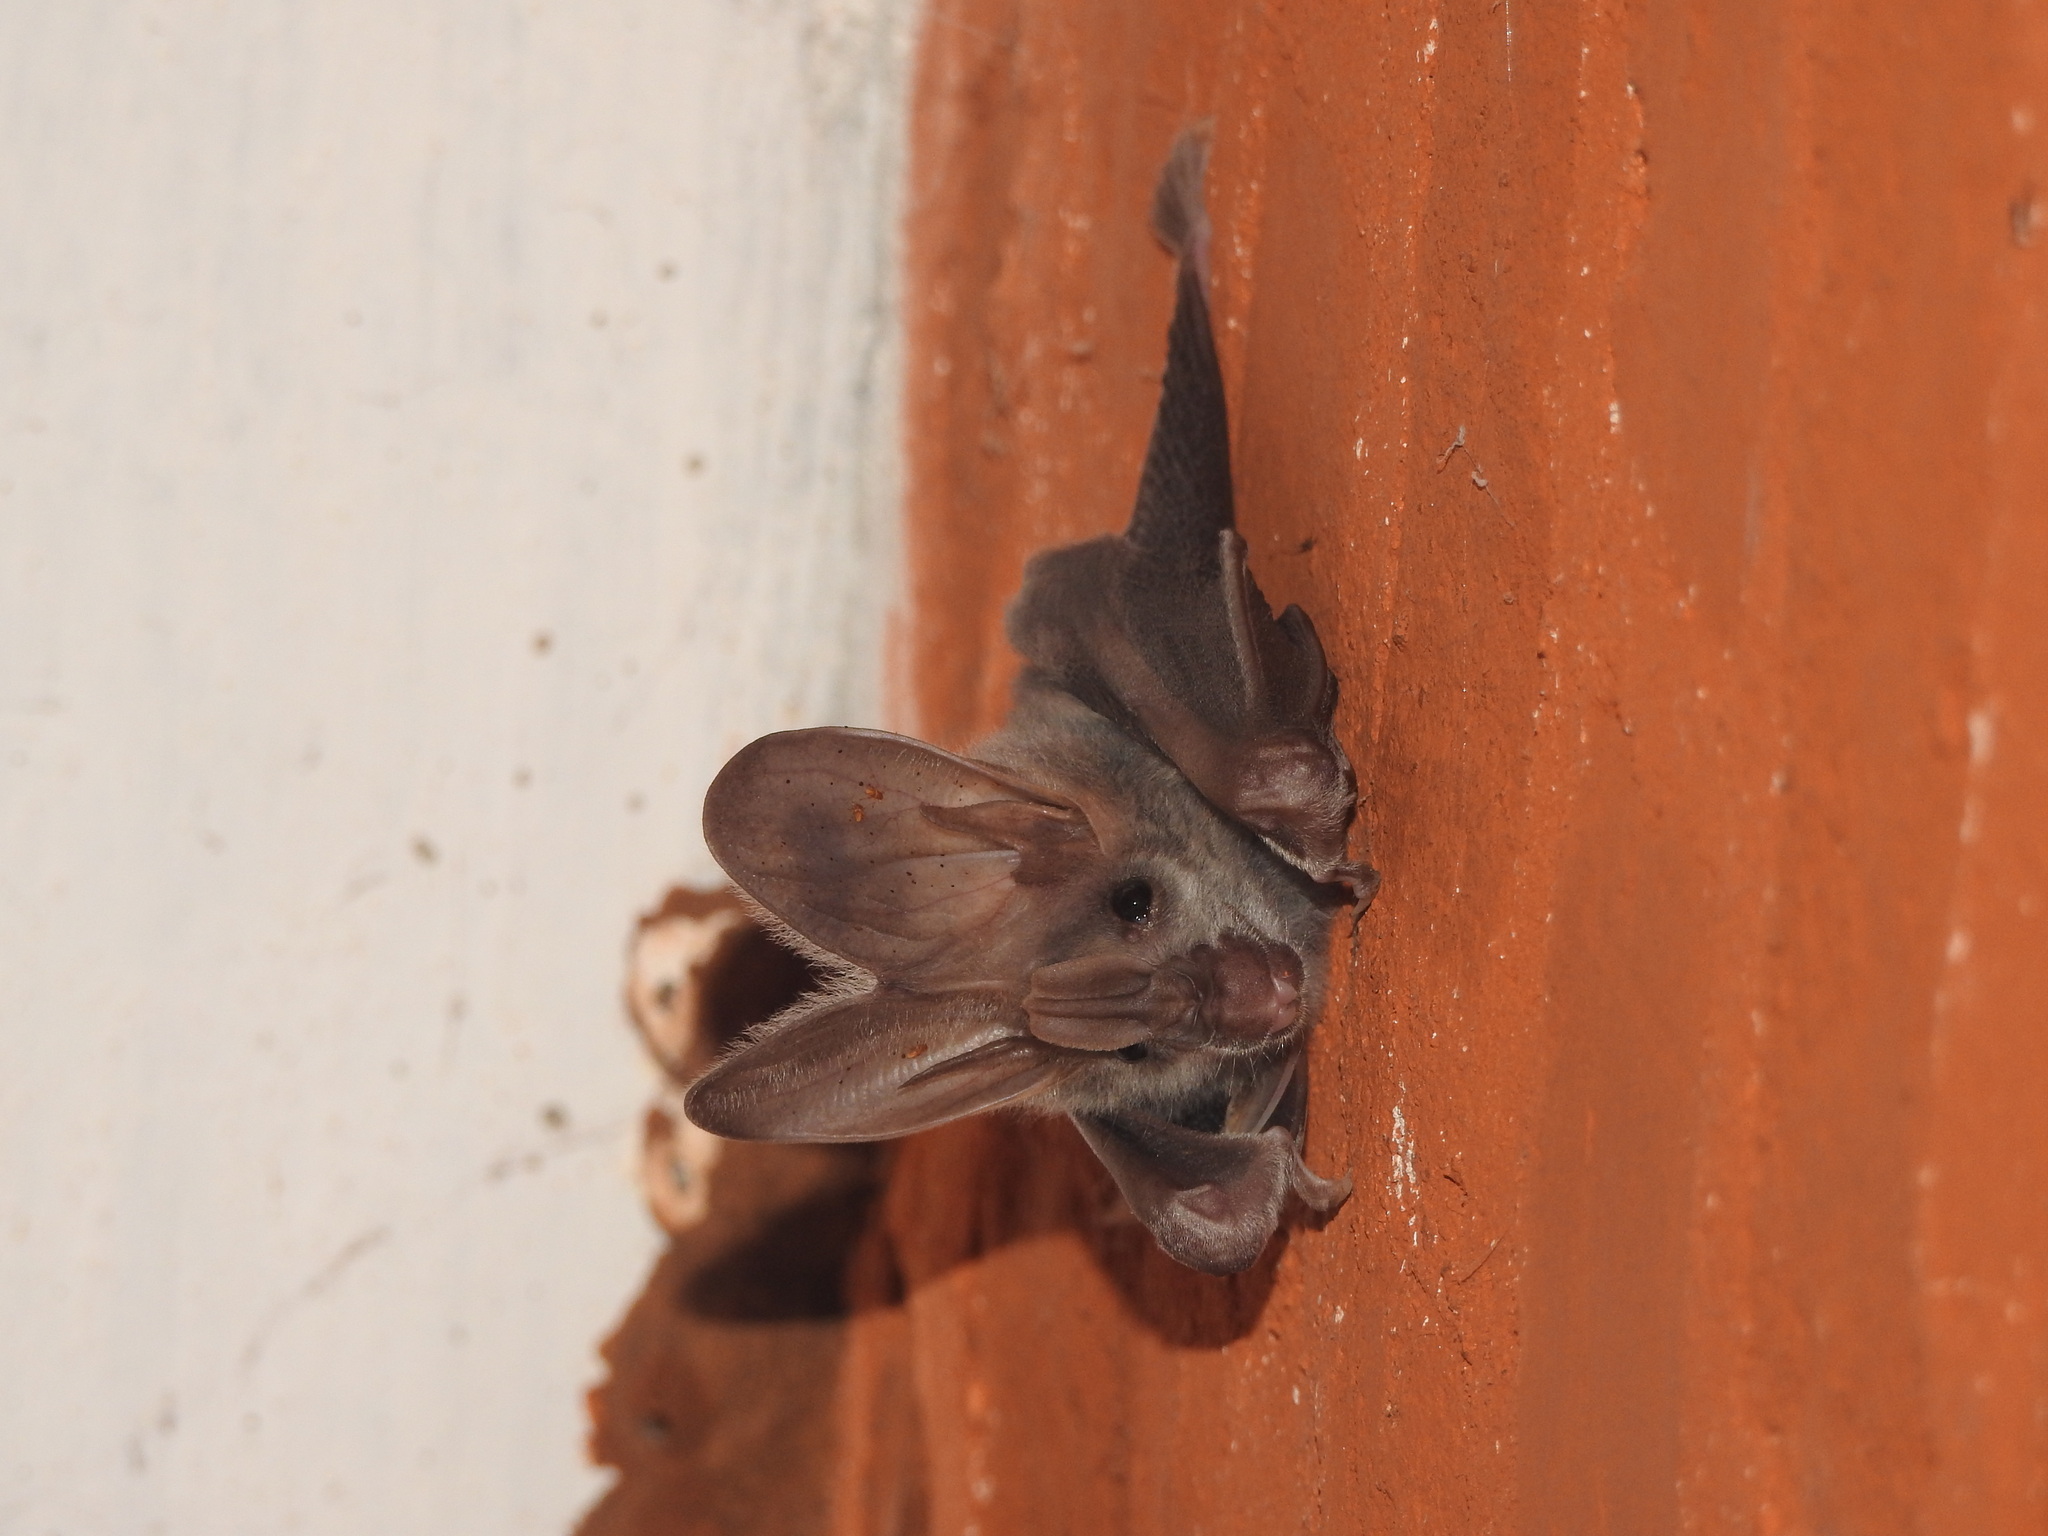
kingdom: Animalia
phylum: Chordata
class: Mammalia
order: Chiroptera
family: Megadermatidae
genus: Lyroderma
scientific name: Lyroderma lyra
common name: Greater false vampire bat
